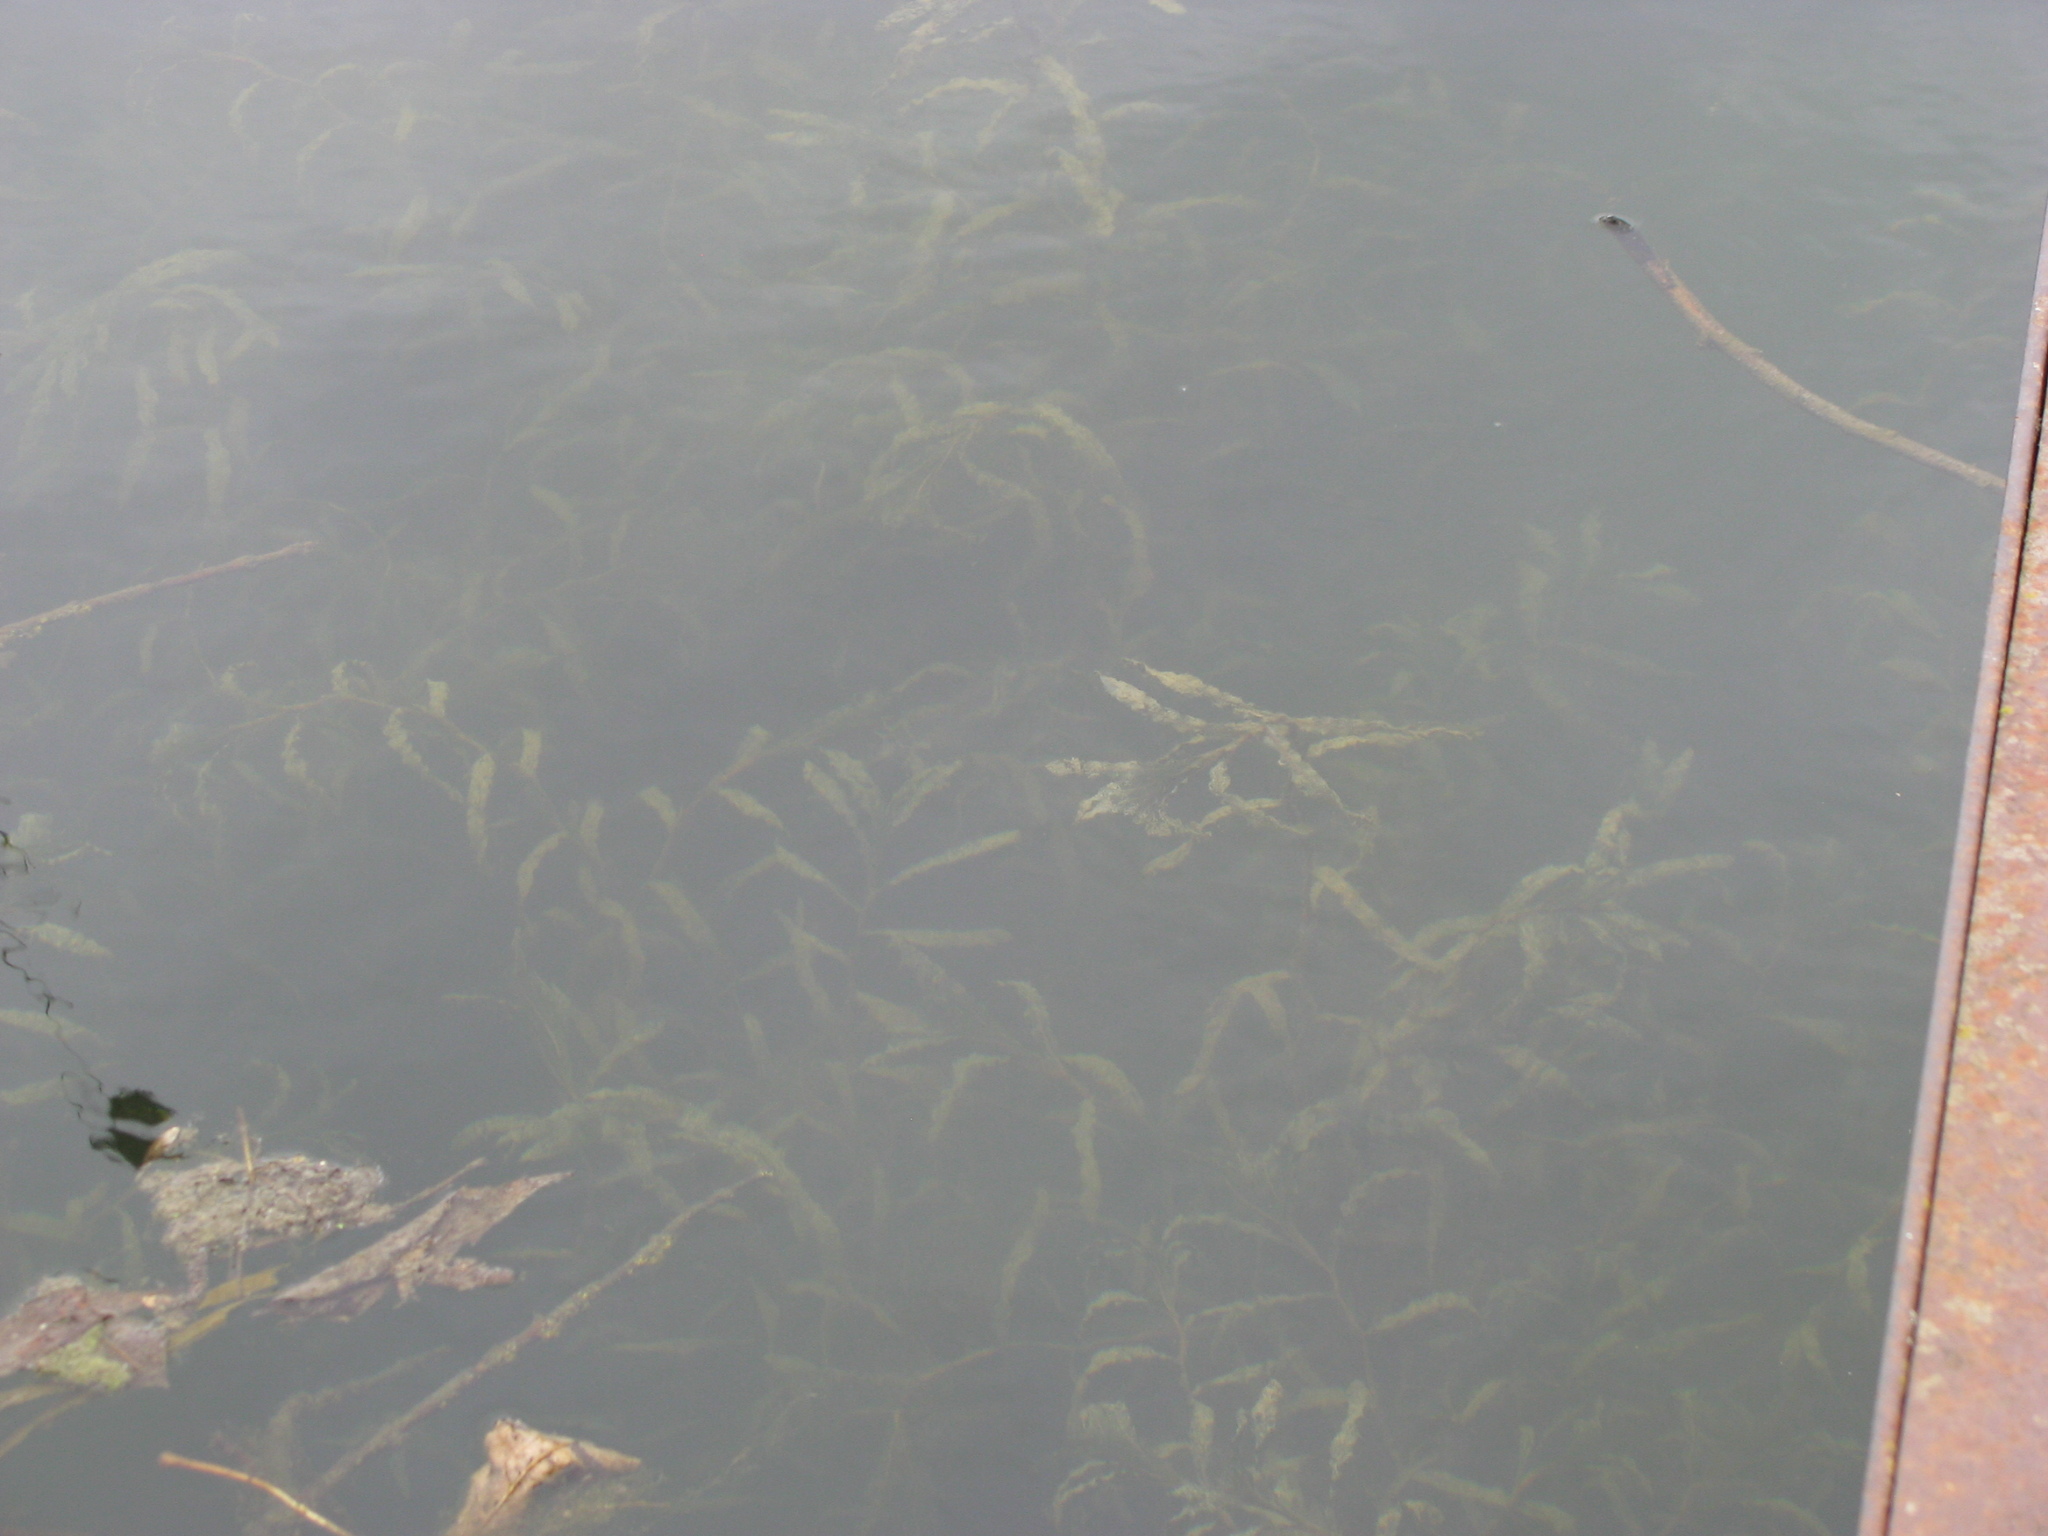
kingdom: Plantae
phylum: Tracheophyta
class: Liliopsida
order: Alismatales
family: Potamogetonaceae
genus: Potamogeton
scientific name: Potamogeton crispus
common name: Curled pondweed
